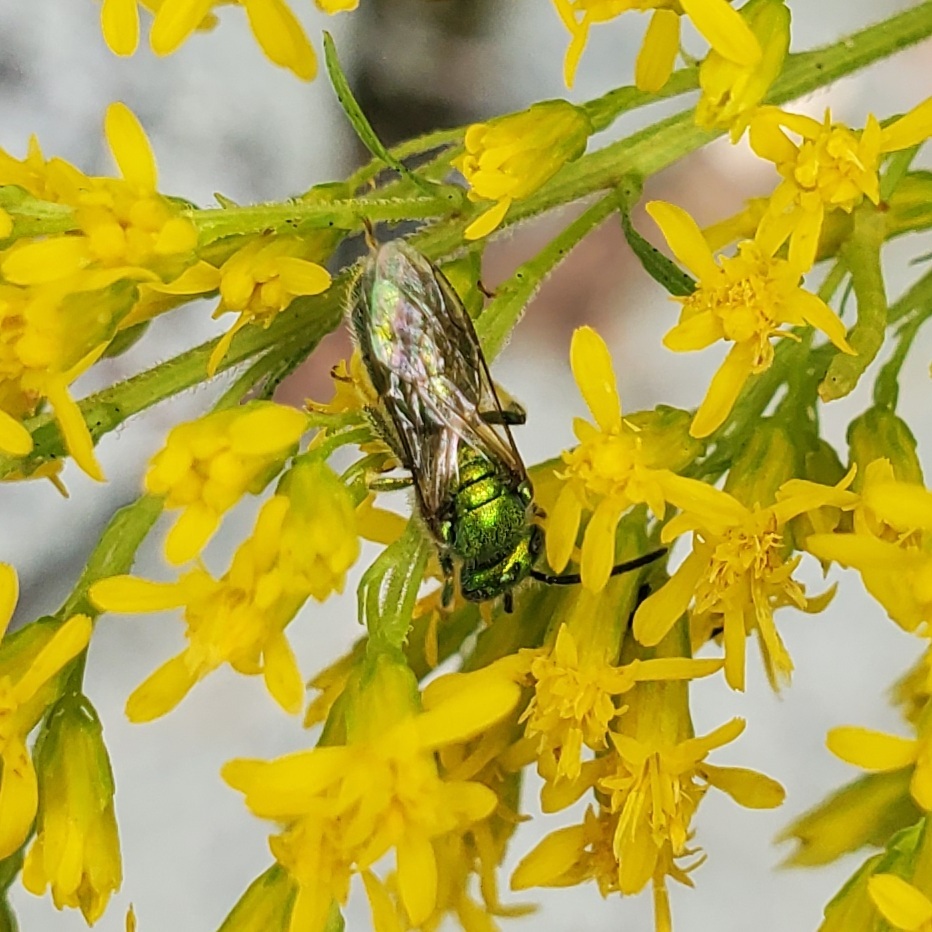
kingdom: Animalia
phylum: Arthropoda
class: Insecta
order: Hymenoptera
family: Halictidae
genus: Augochloropsis
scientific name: Augochloropsis viridula
